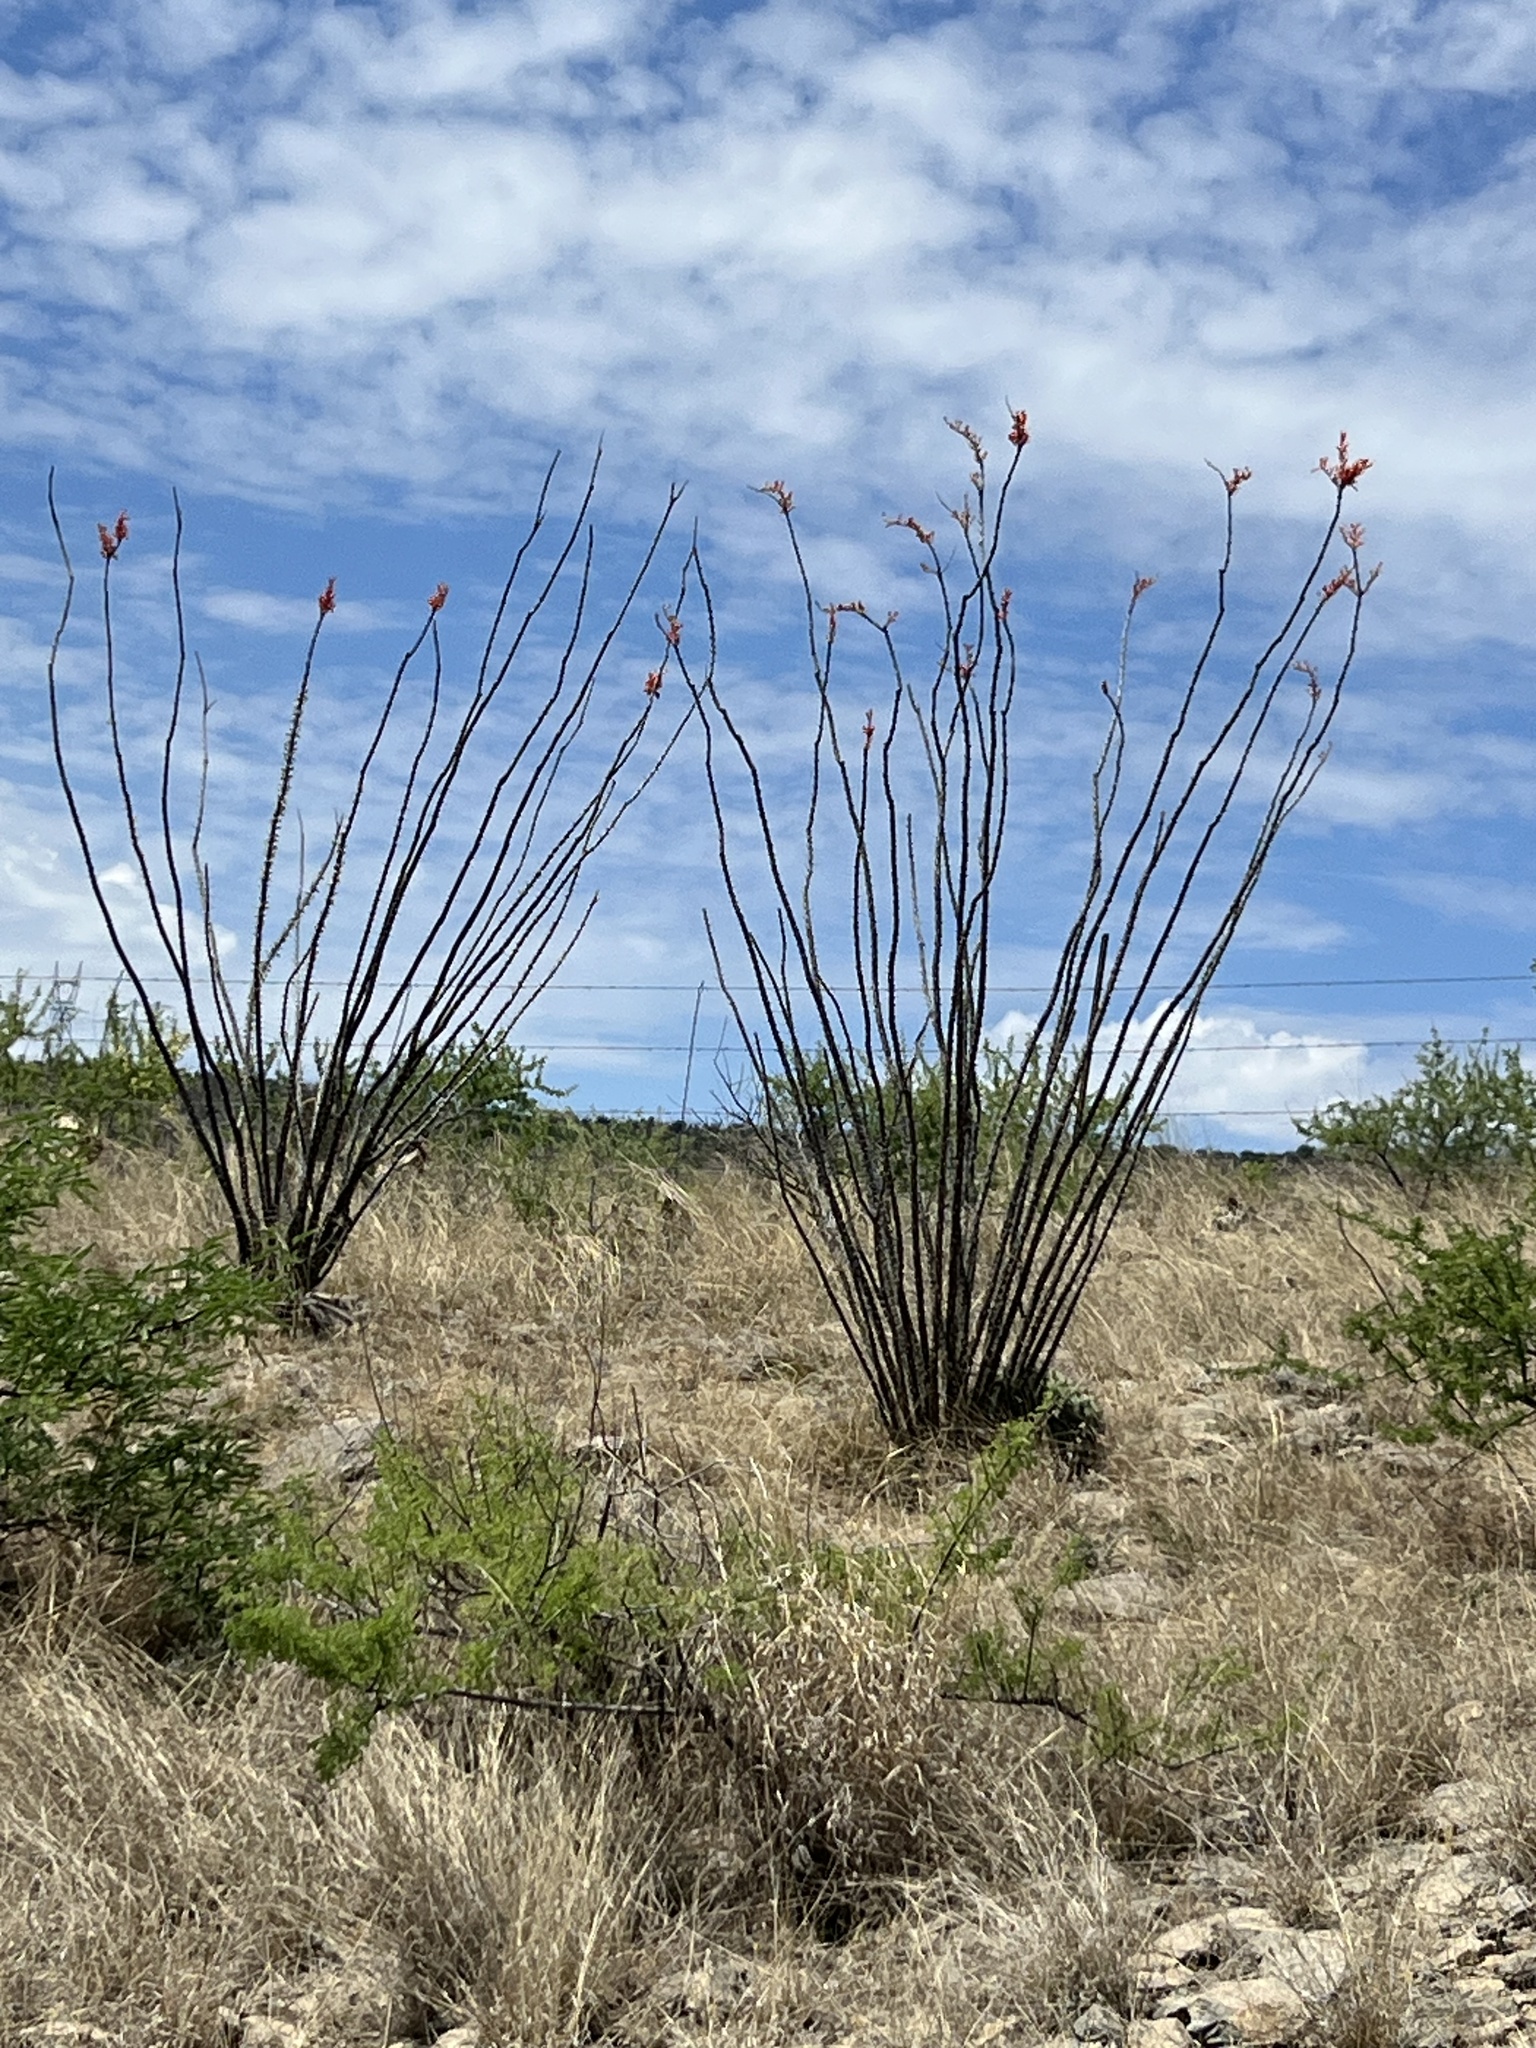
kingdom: Plantae
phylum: Tracheophyta
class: Magnoliopsida
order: Ericales
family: Fouquieriaceae
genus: Fouquieria
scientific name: Fouquieria splendens
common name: Vine-cactus
